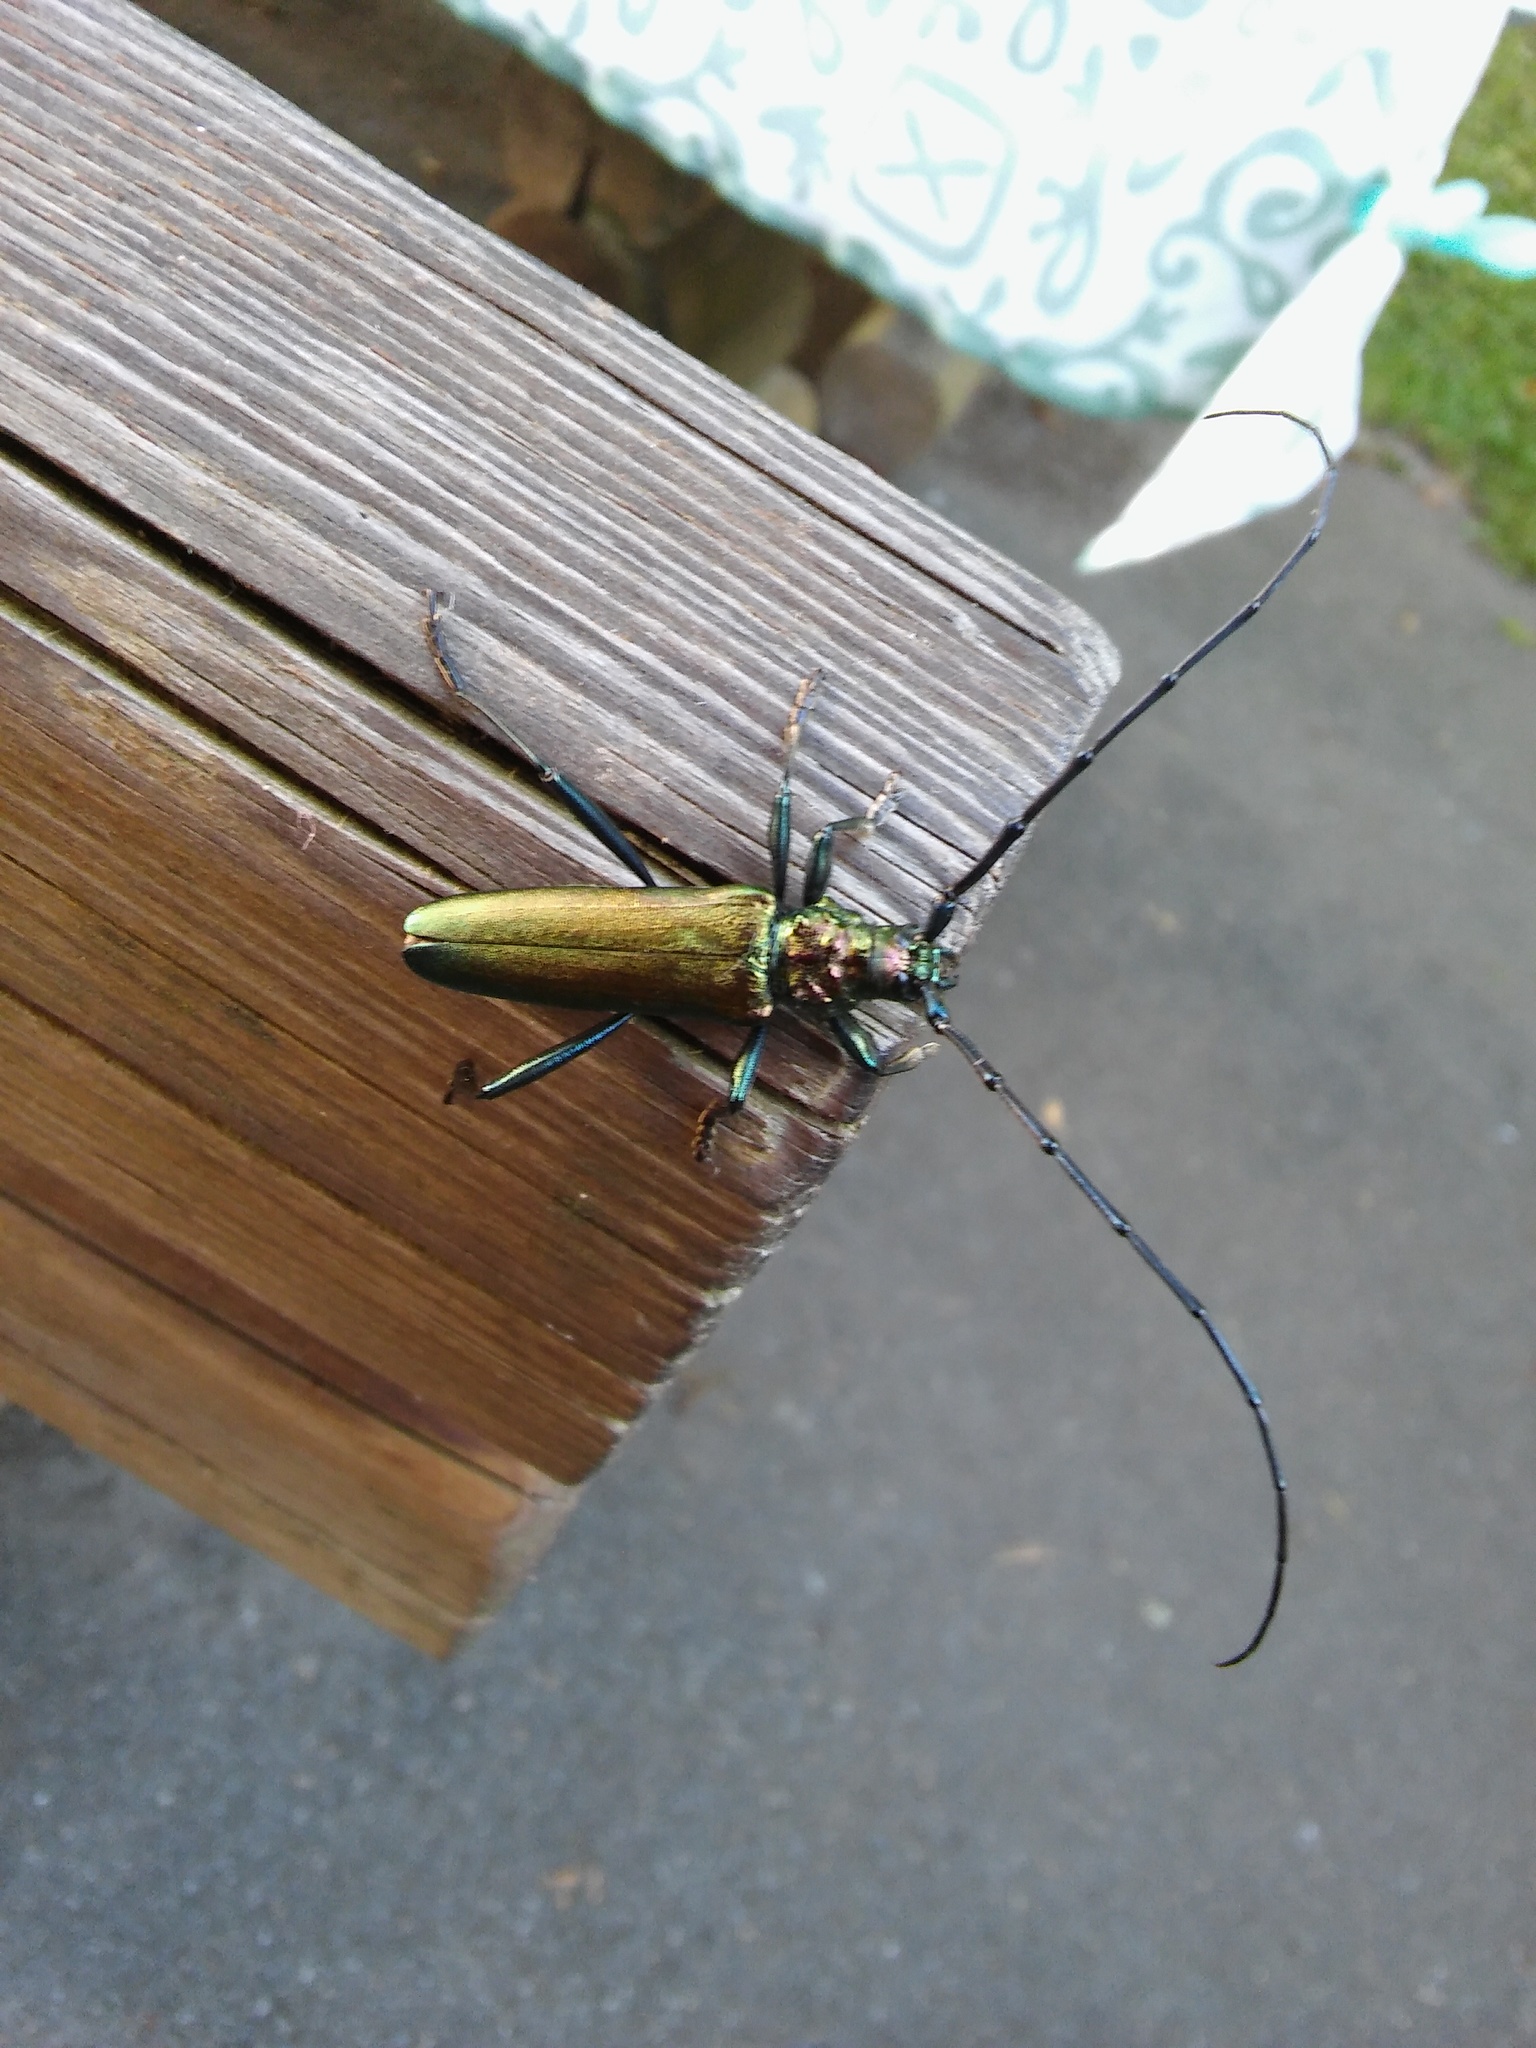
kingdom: Animalia
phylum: Arthropoda
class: Insecta
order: Coleoptera
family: Cerambycidae
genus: Aromia
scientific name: Aromia moschata
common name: Musk beetle
